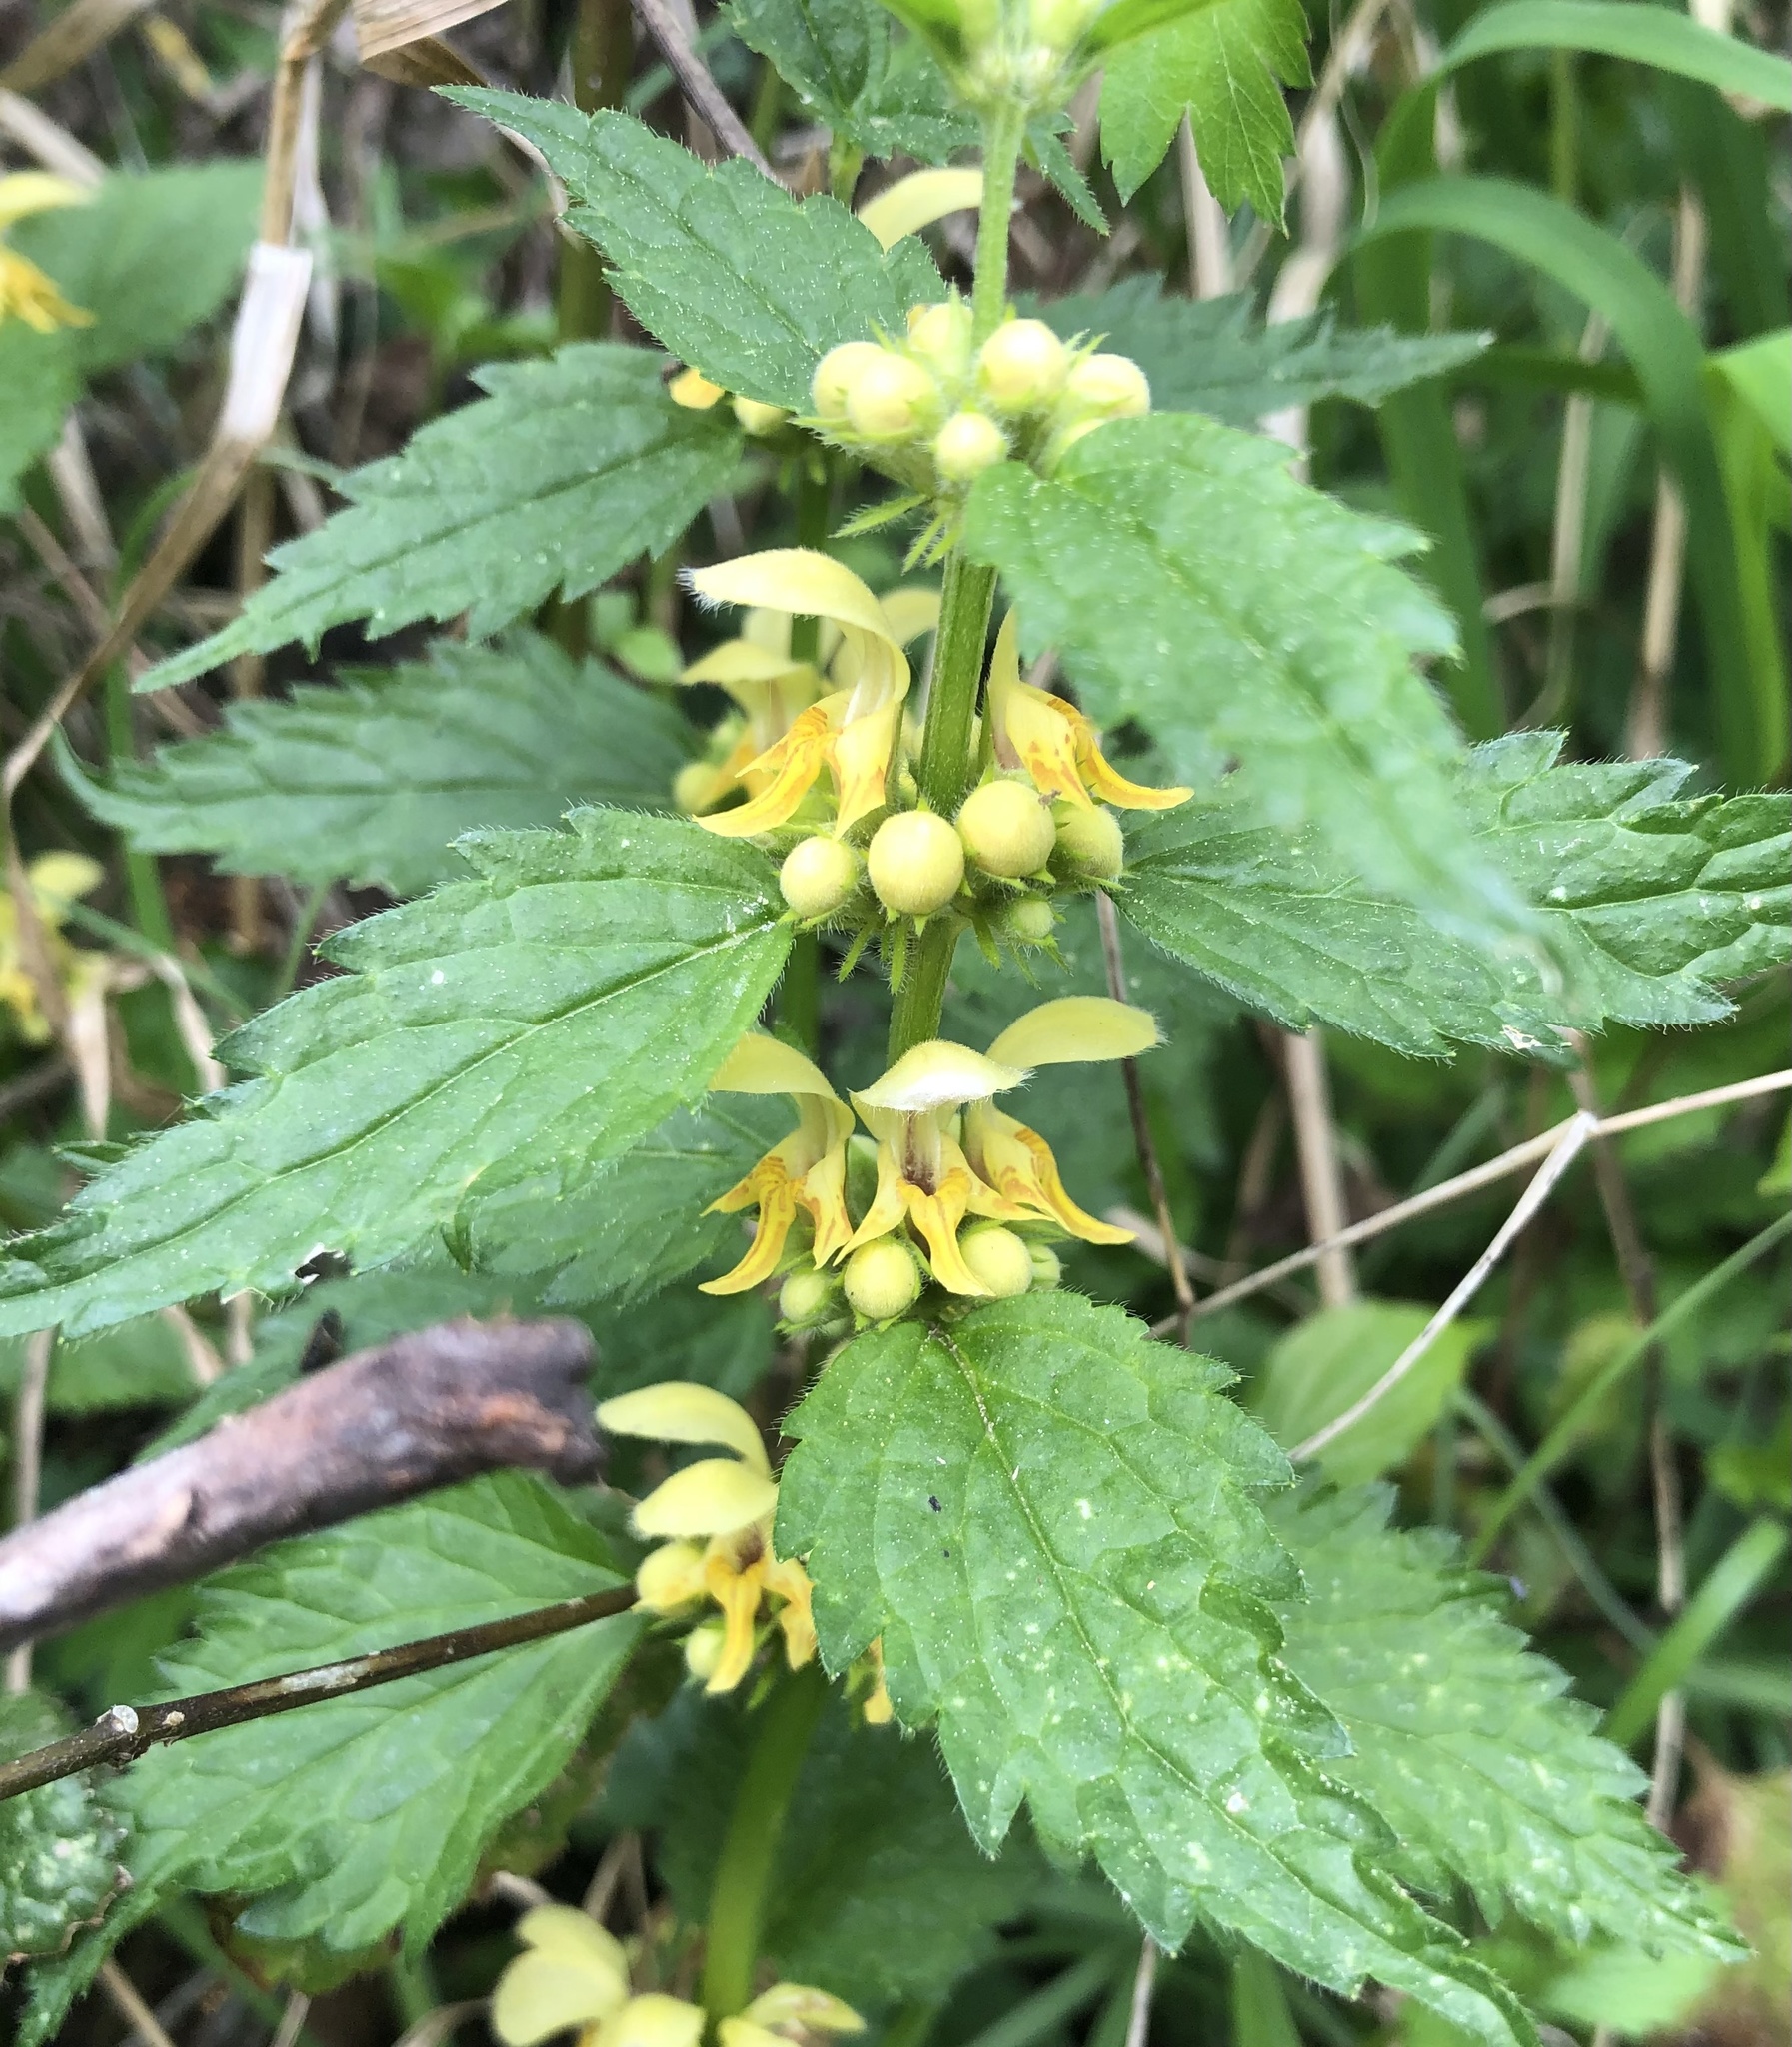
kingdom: Plantae
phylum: Tracheophyta
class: Magnoliopsida
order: Lamiales
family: Lamiaceae
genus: Lamium
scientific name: Lamium galeobdolon
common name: Yellow archangel
